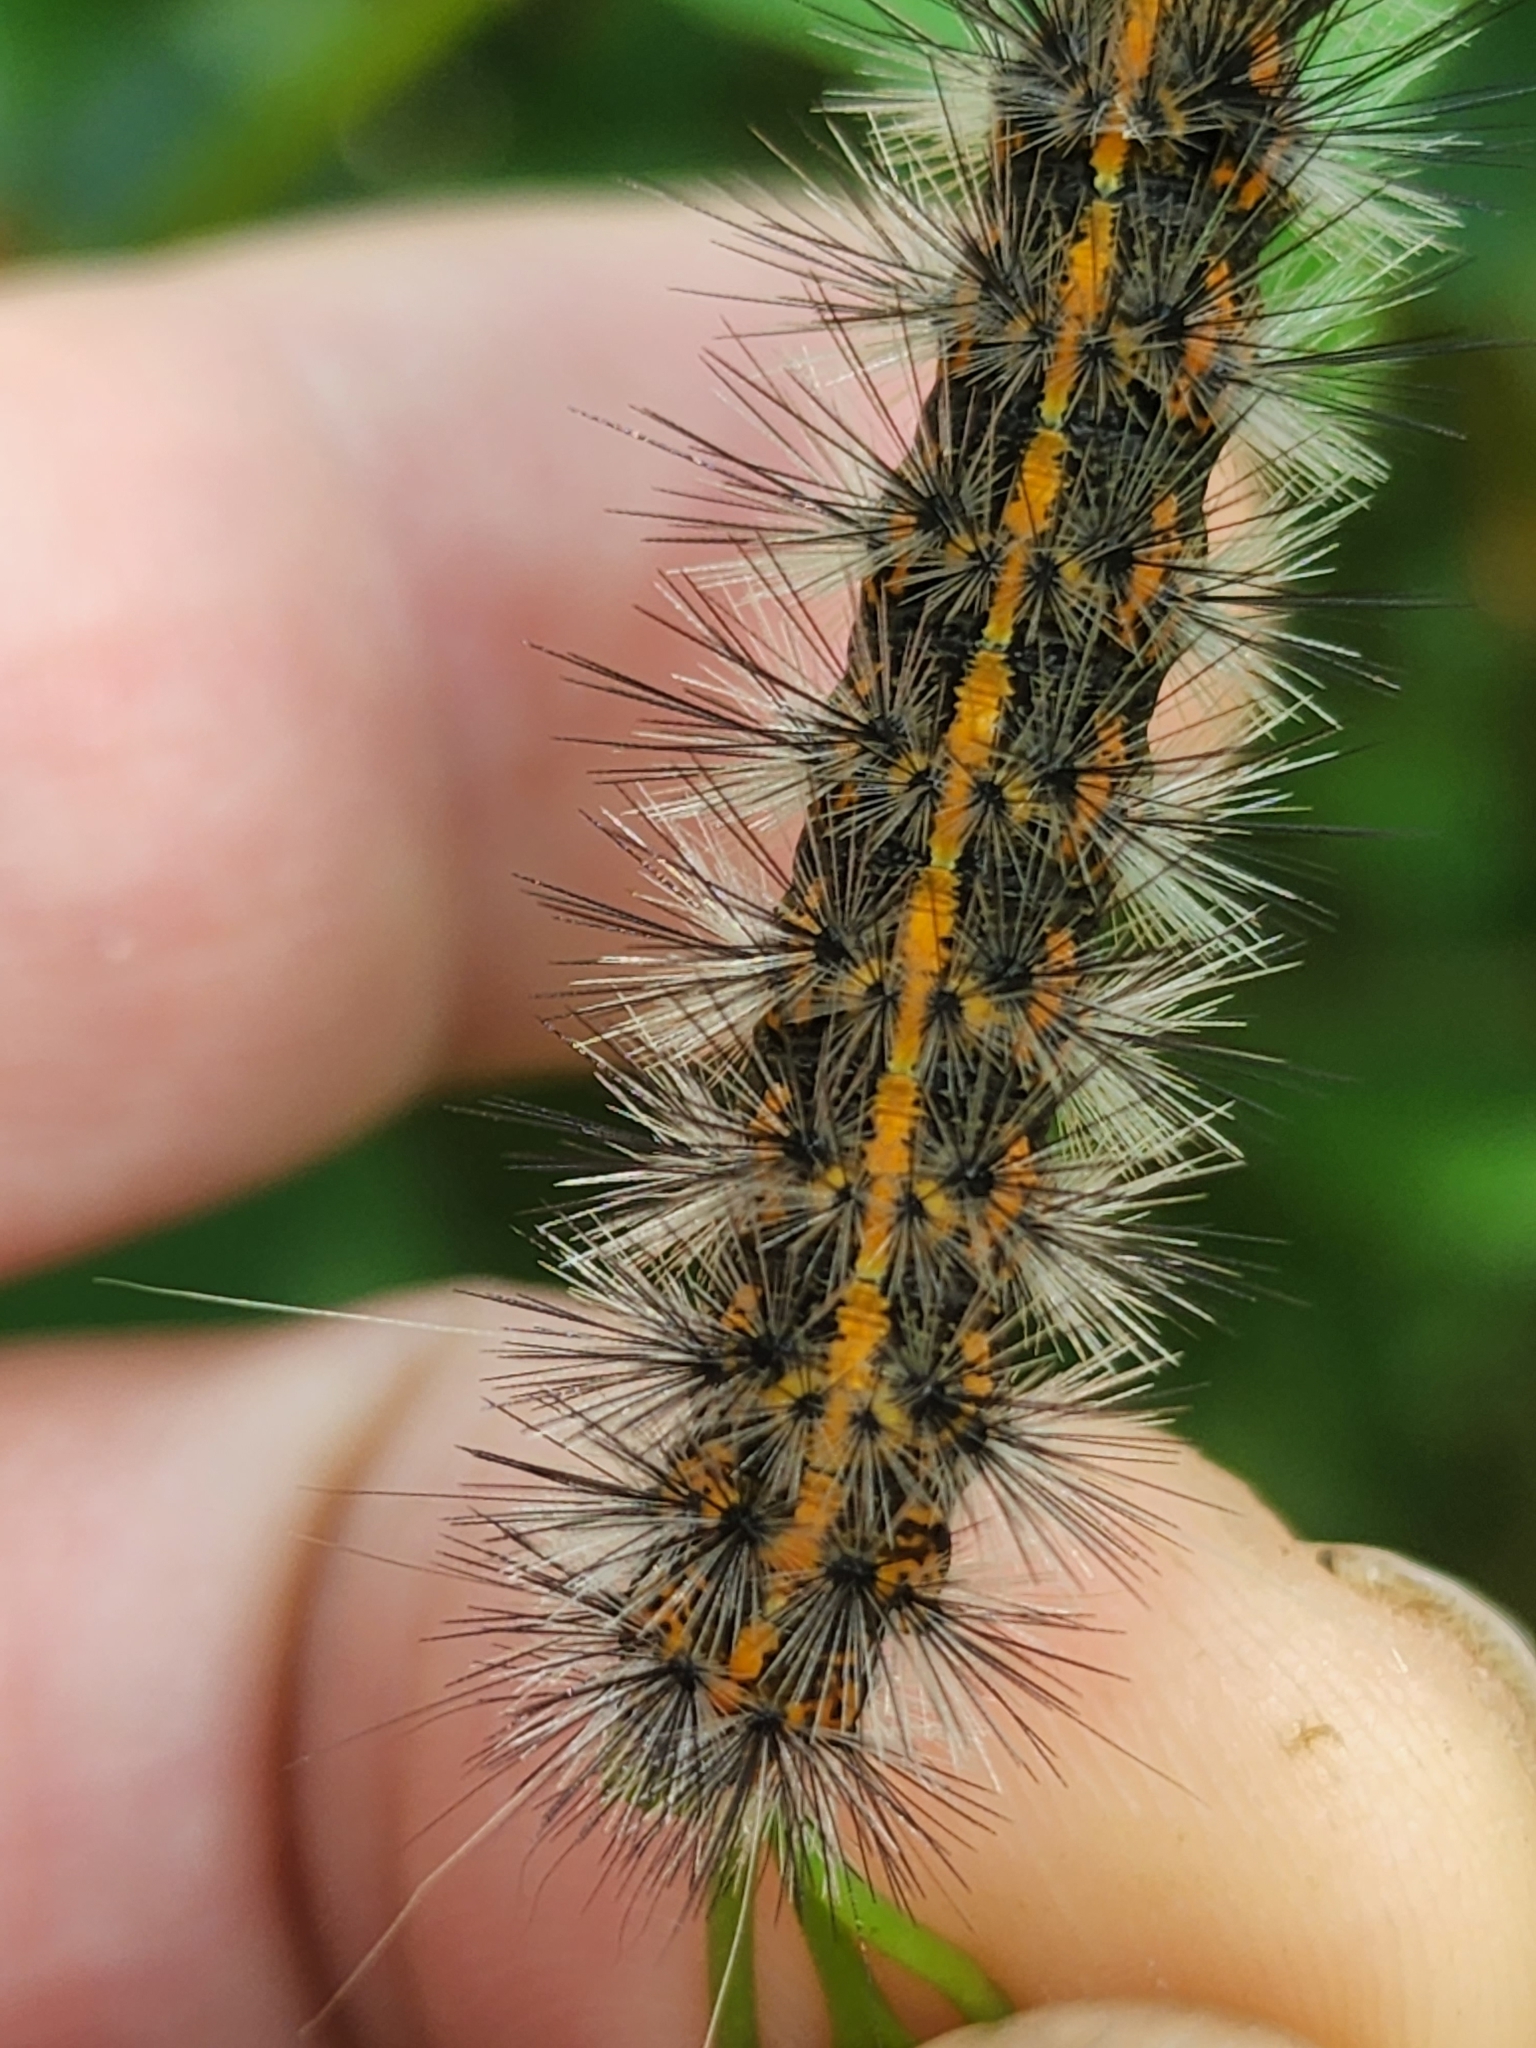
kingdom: Animalia
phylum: Arthropoda
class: Insecta
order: Lepidoptera
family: Erebidae
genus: Spilosoma
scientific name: Spilosoma dubia
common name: Dubious tiger moth
